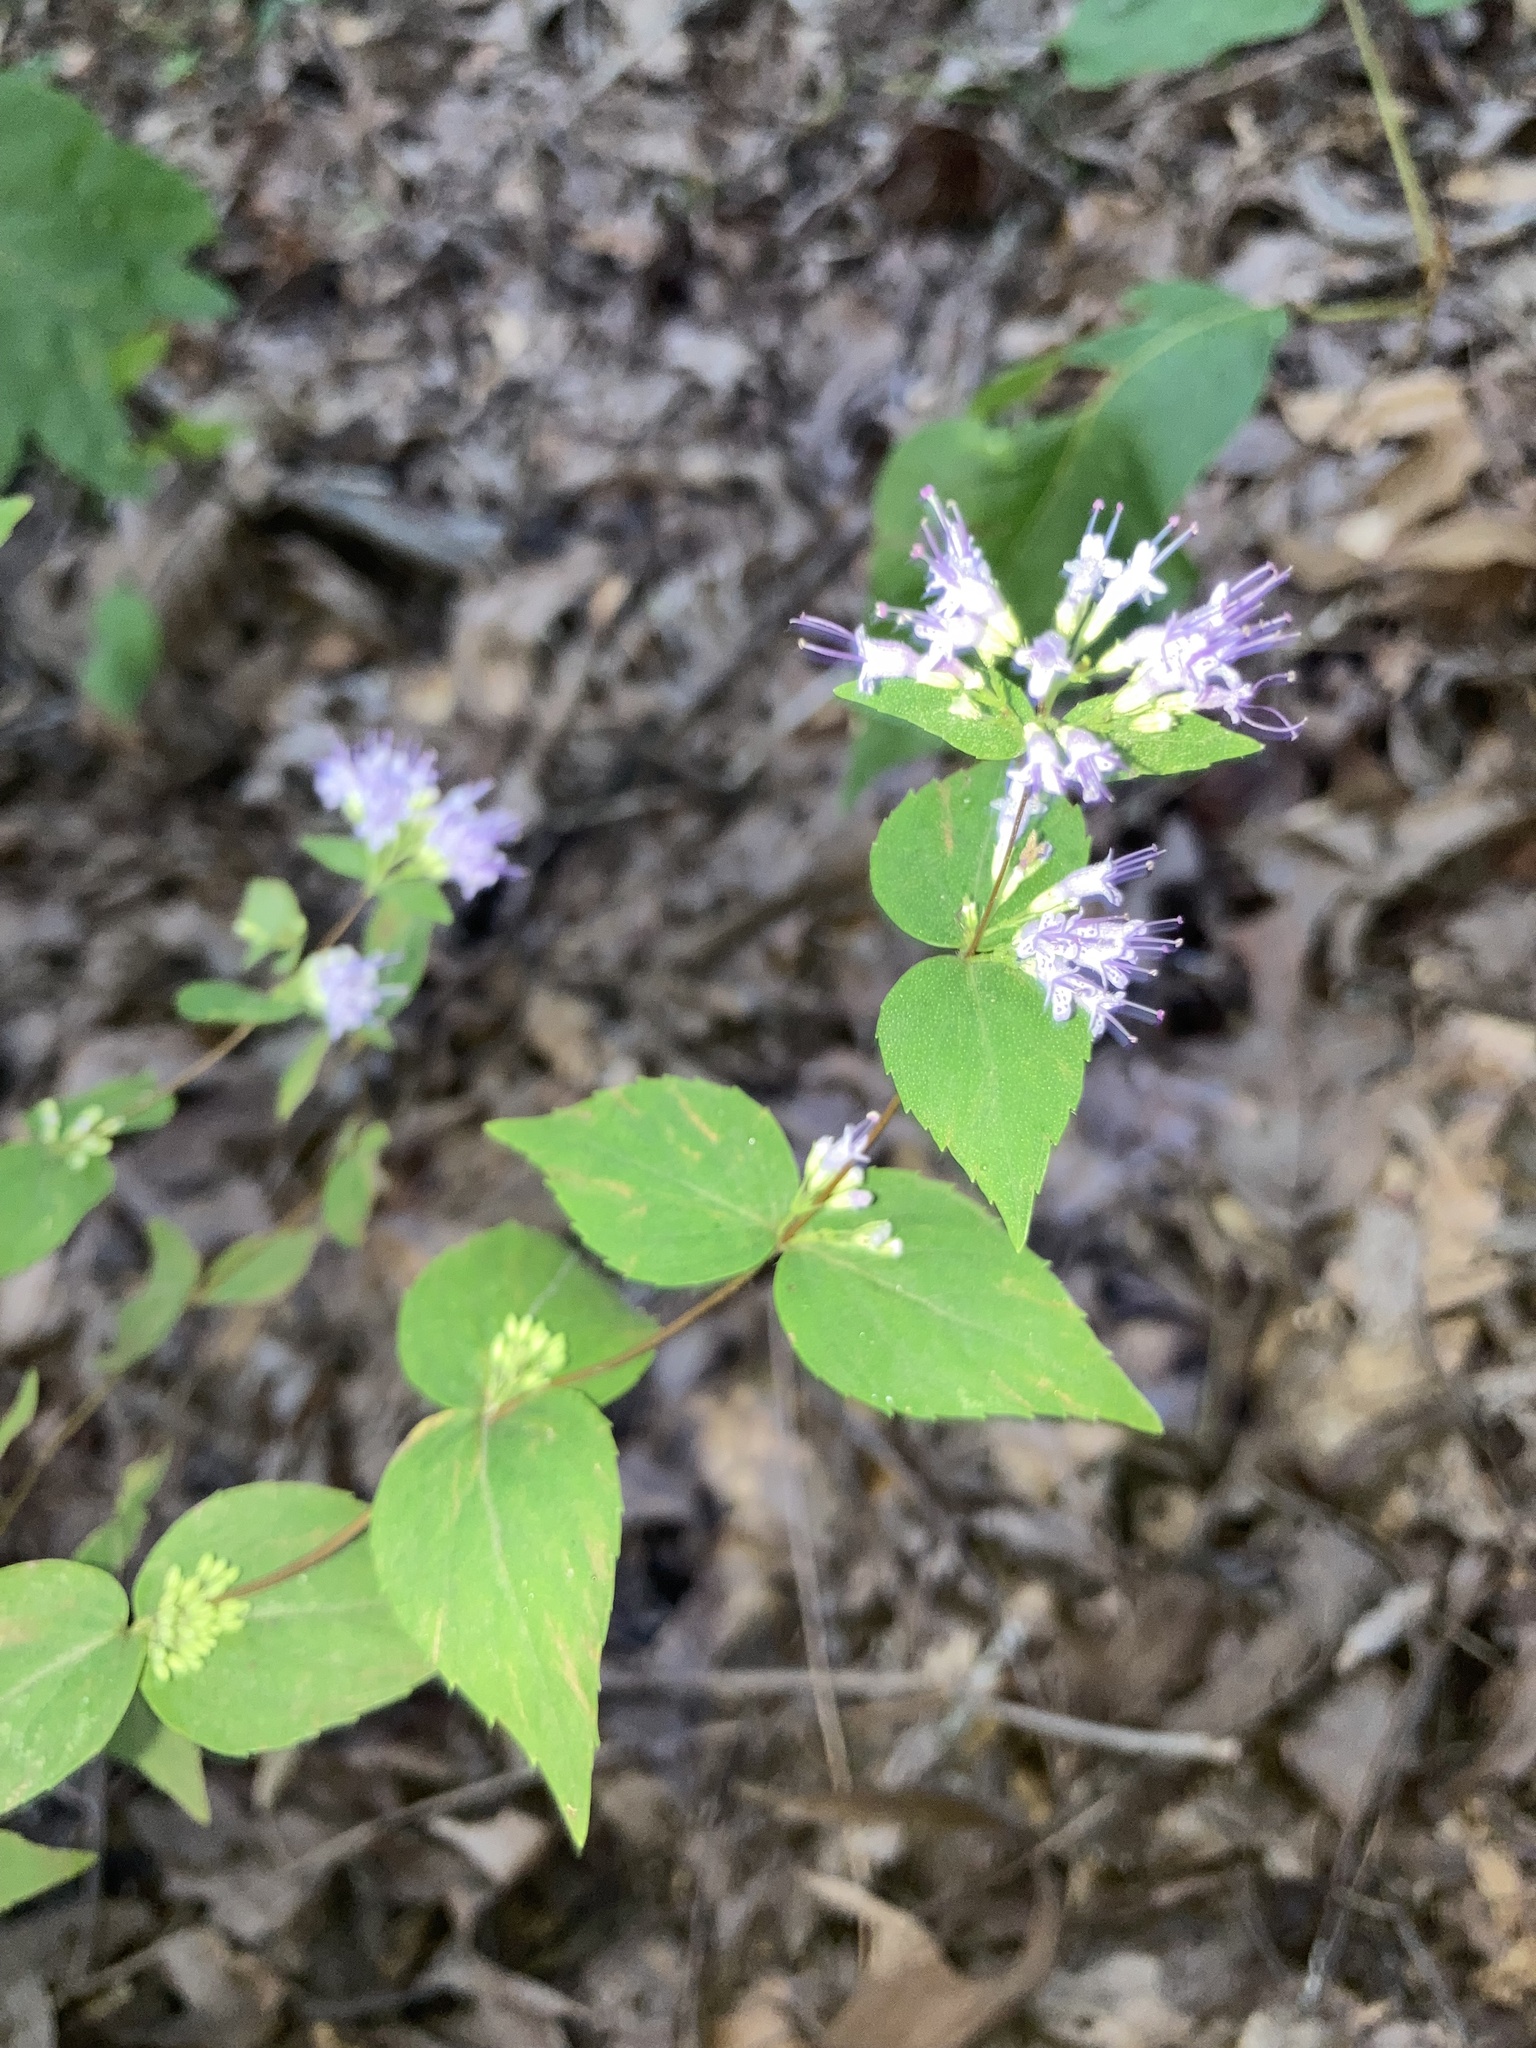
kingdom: Plantae
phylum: Tracheophyta
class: Magnoliopsida
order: Lamiales
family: Lamiaceae
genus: Cunila
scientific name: Cunila origanoides
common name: American dittany
